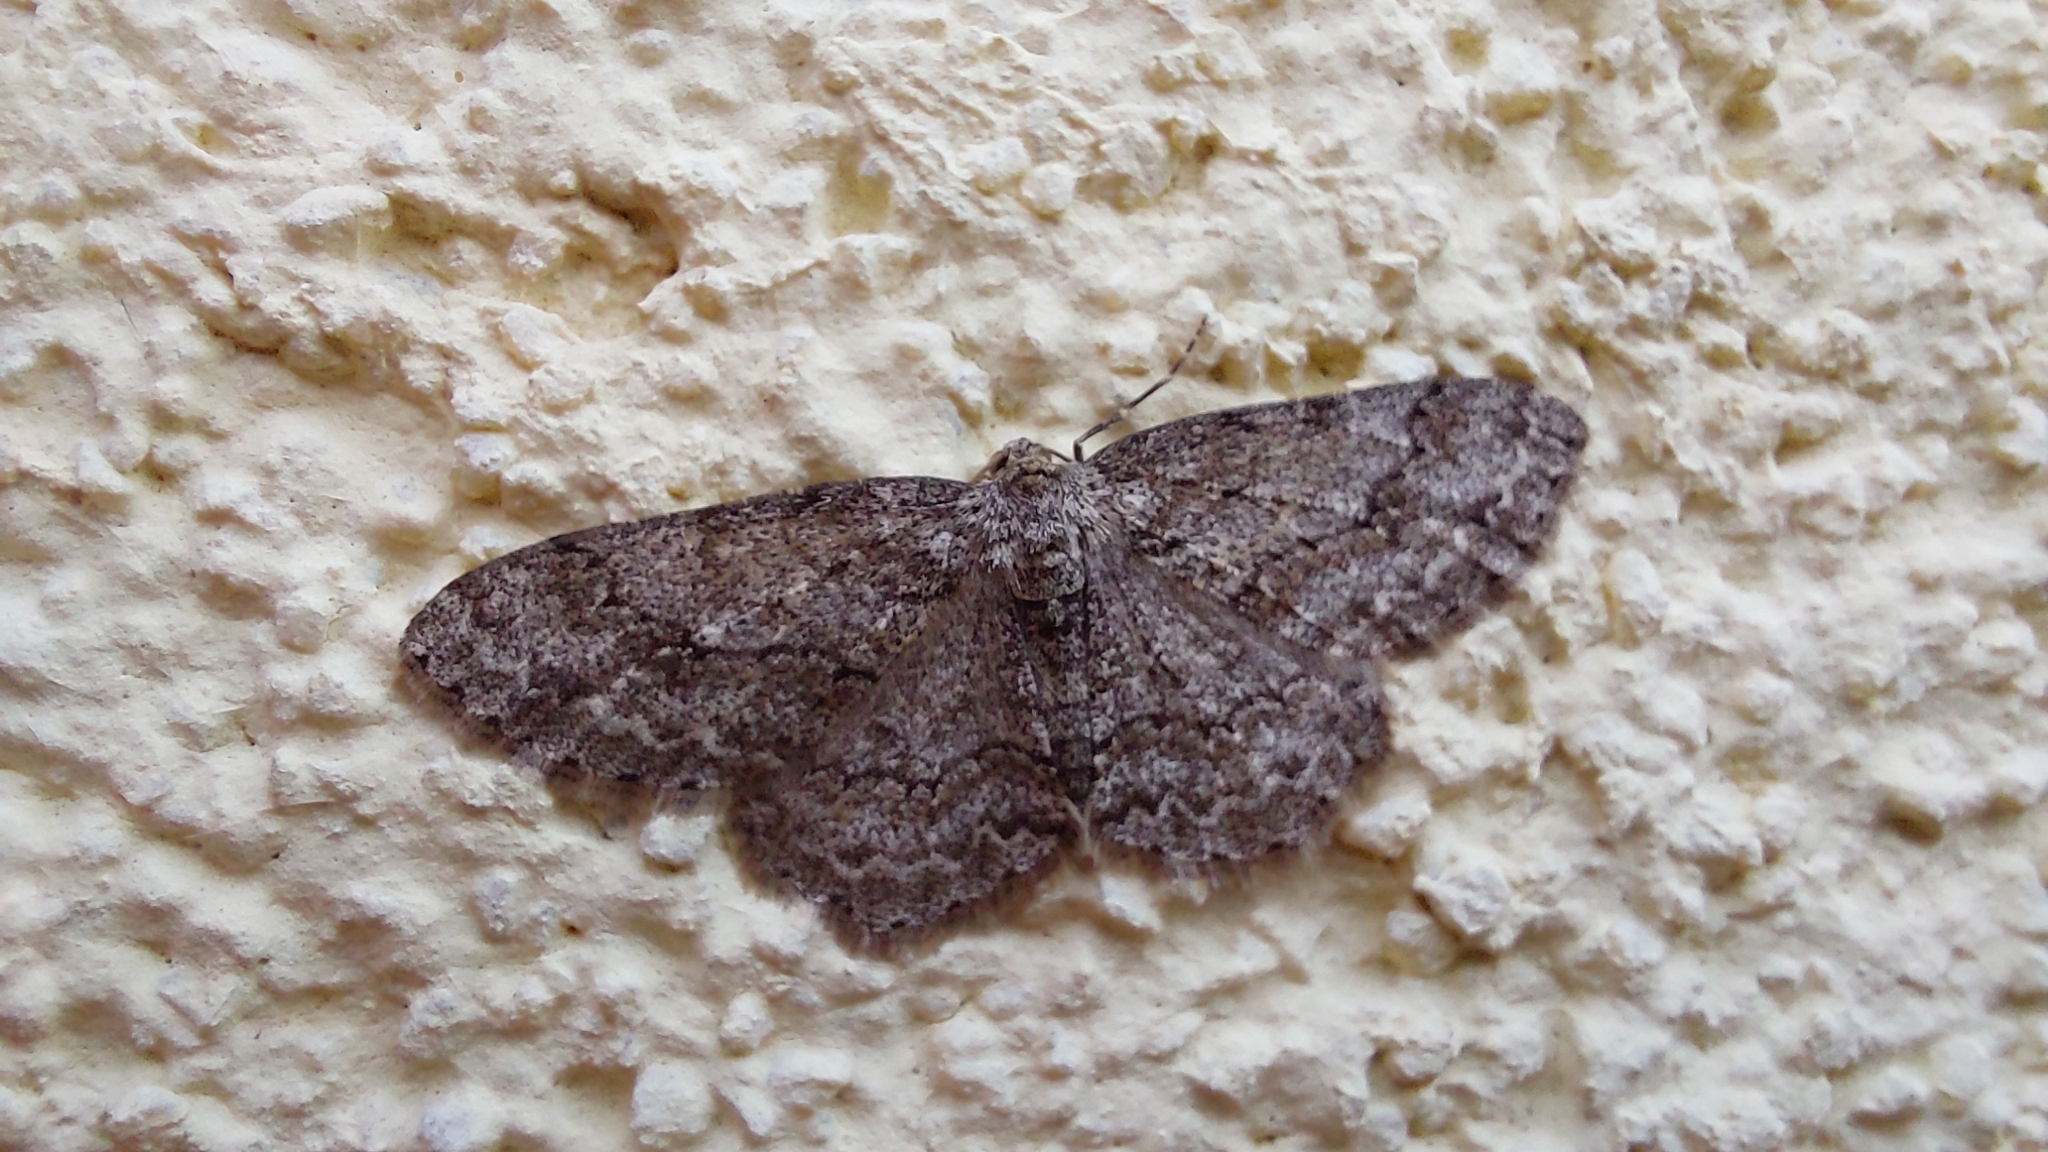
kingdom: Animalia
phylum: Arthropoda
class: Insecta
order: Lepidoptera
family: Geometridae
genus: Ectropis
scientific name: Ectropis crepuscularia
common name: Engrailed
